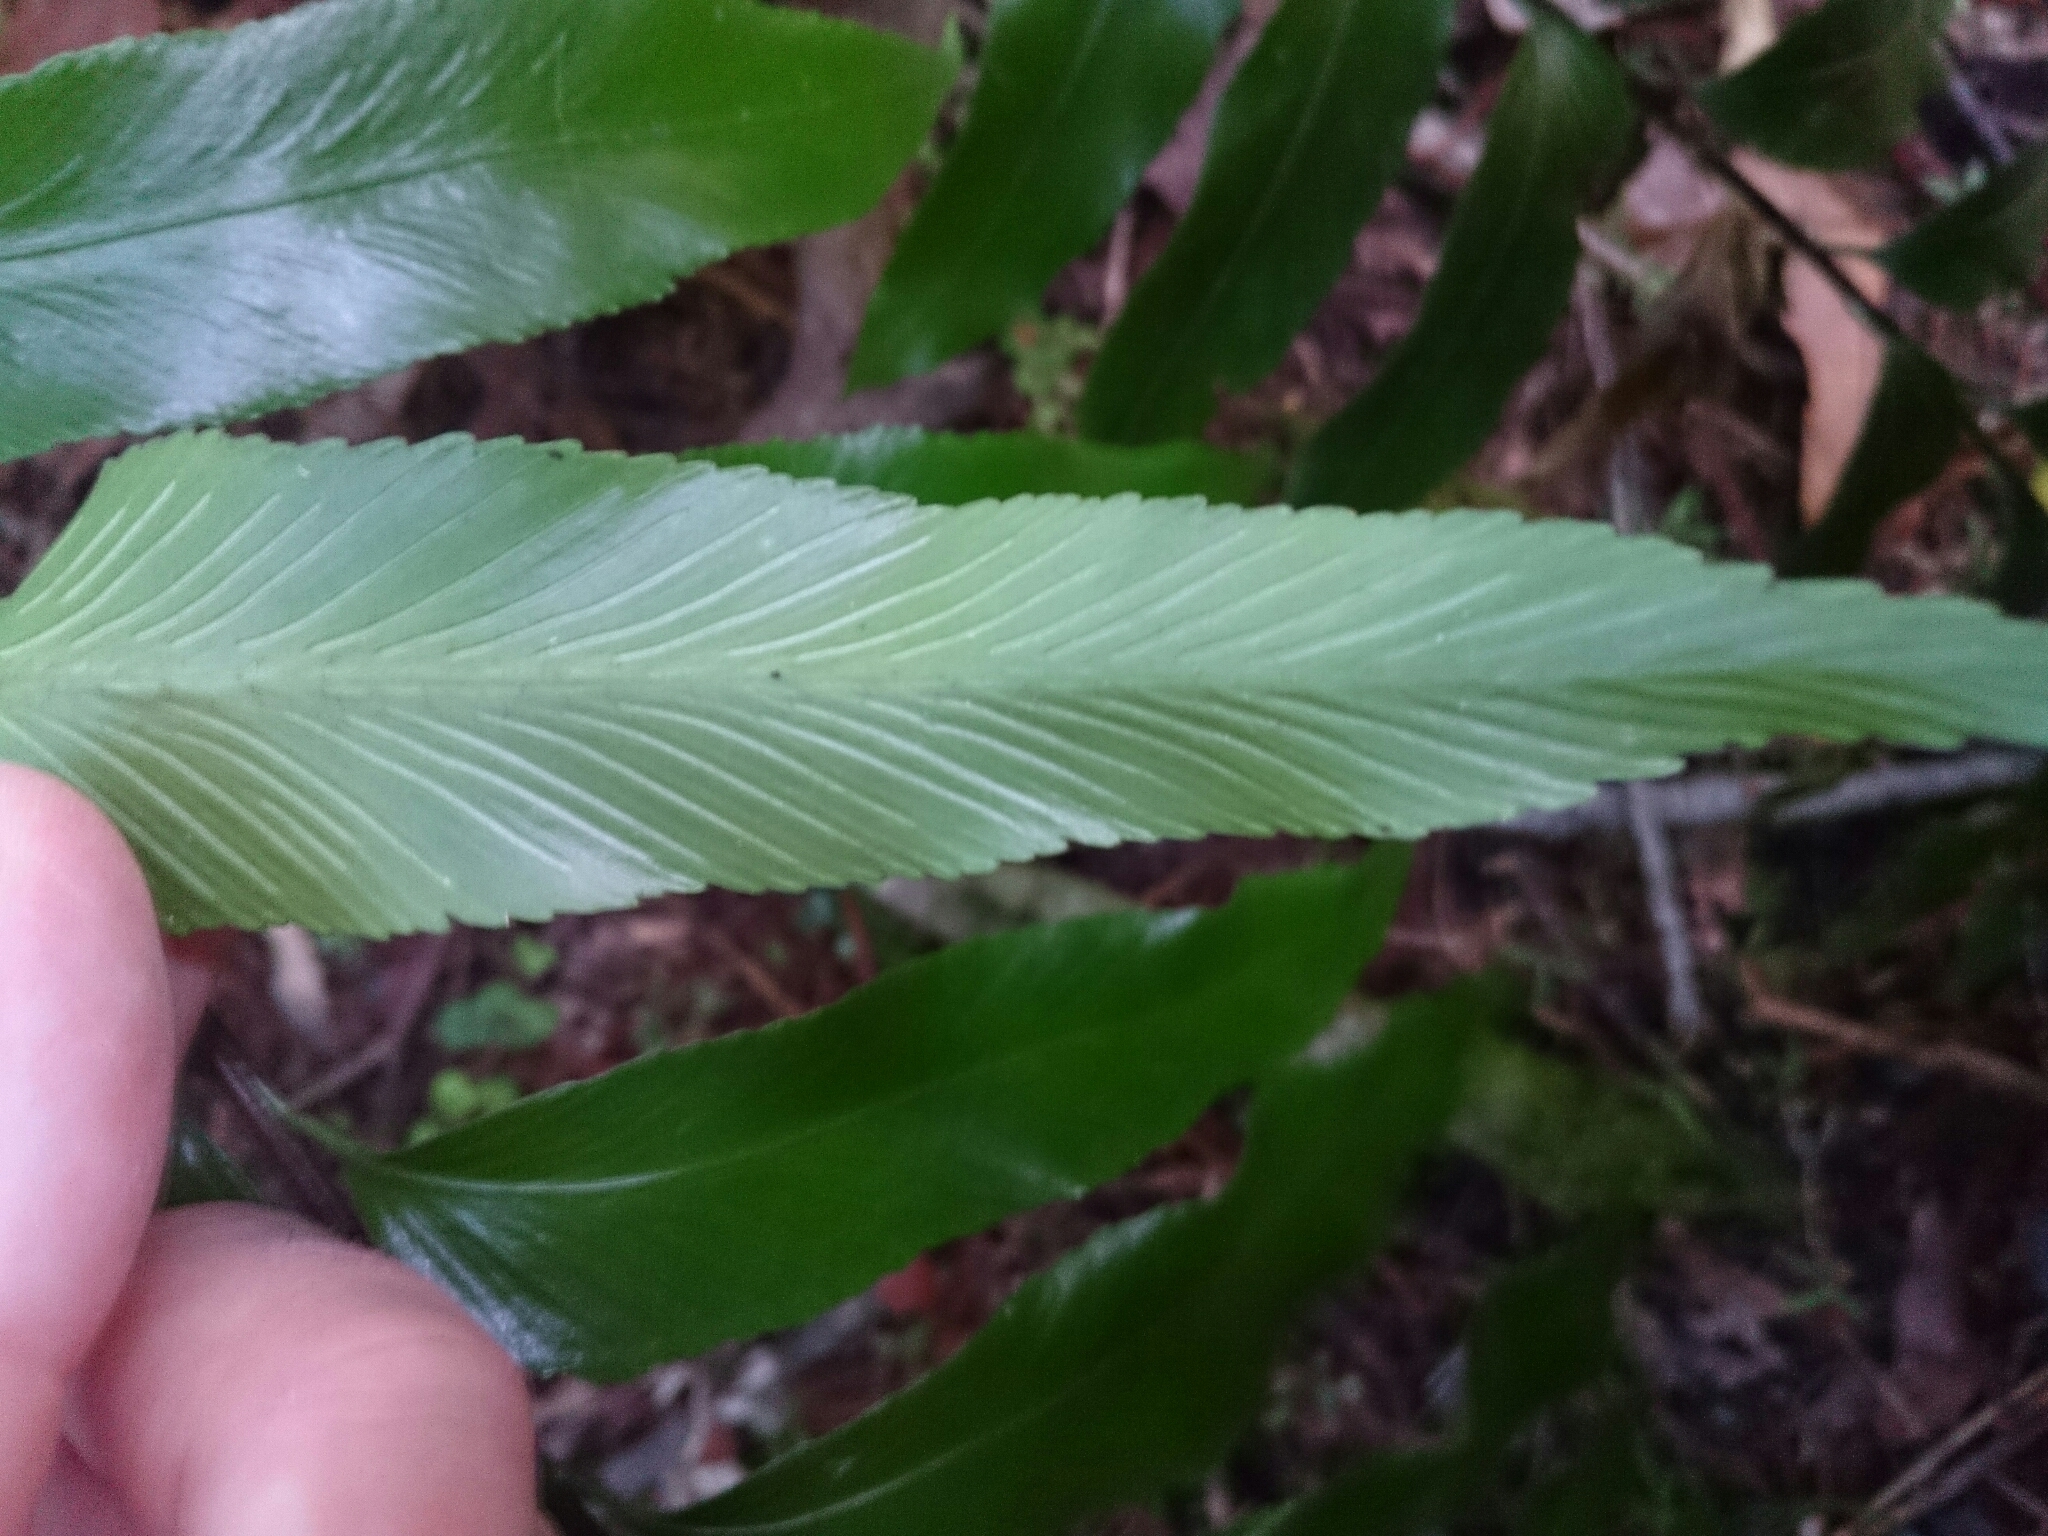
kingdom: Plantae
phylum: Tracheophyta
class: Polypodiopsida
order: Polypodiales
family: Aspleniaceae
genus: Asplenium
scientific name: Asplenium oblongifolium
